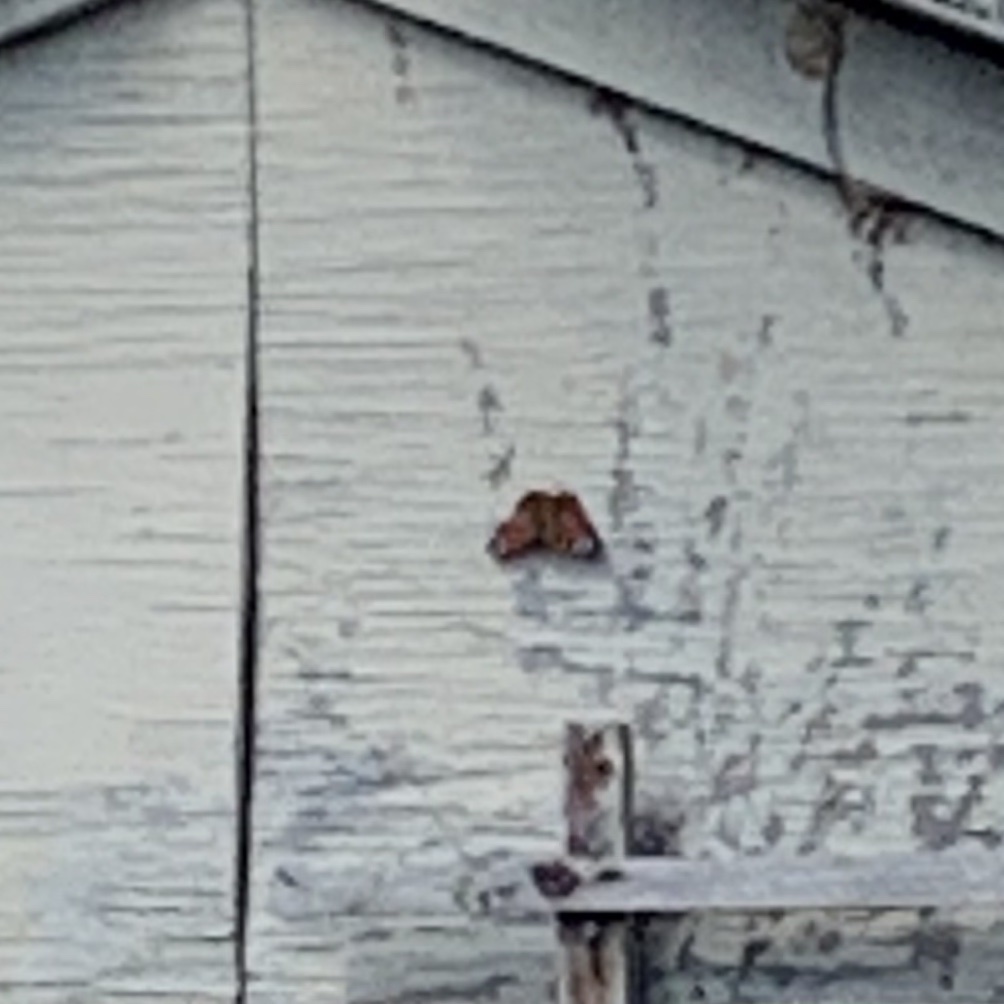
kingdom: Animalia
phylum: Arthropoda
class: Insecta
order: Lepidoptera
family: Nymphalidae
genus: Aglais
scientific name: Aglais io
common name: Peacock
